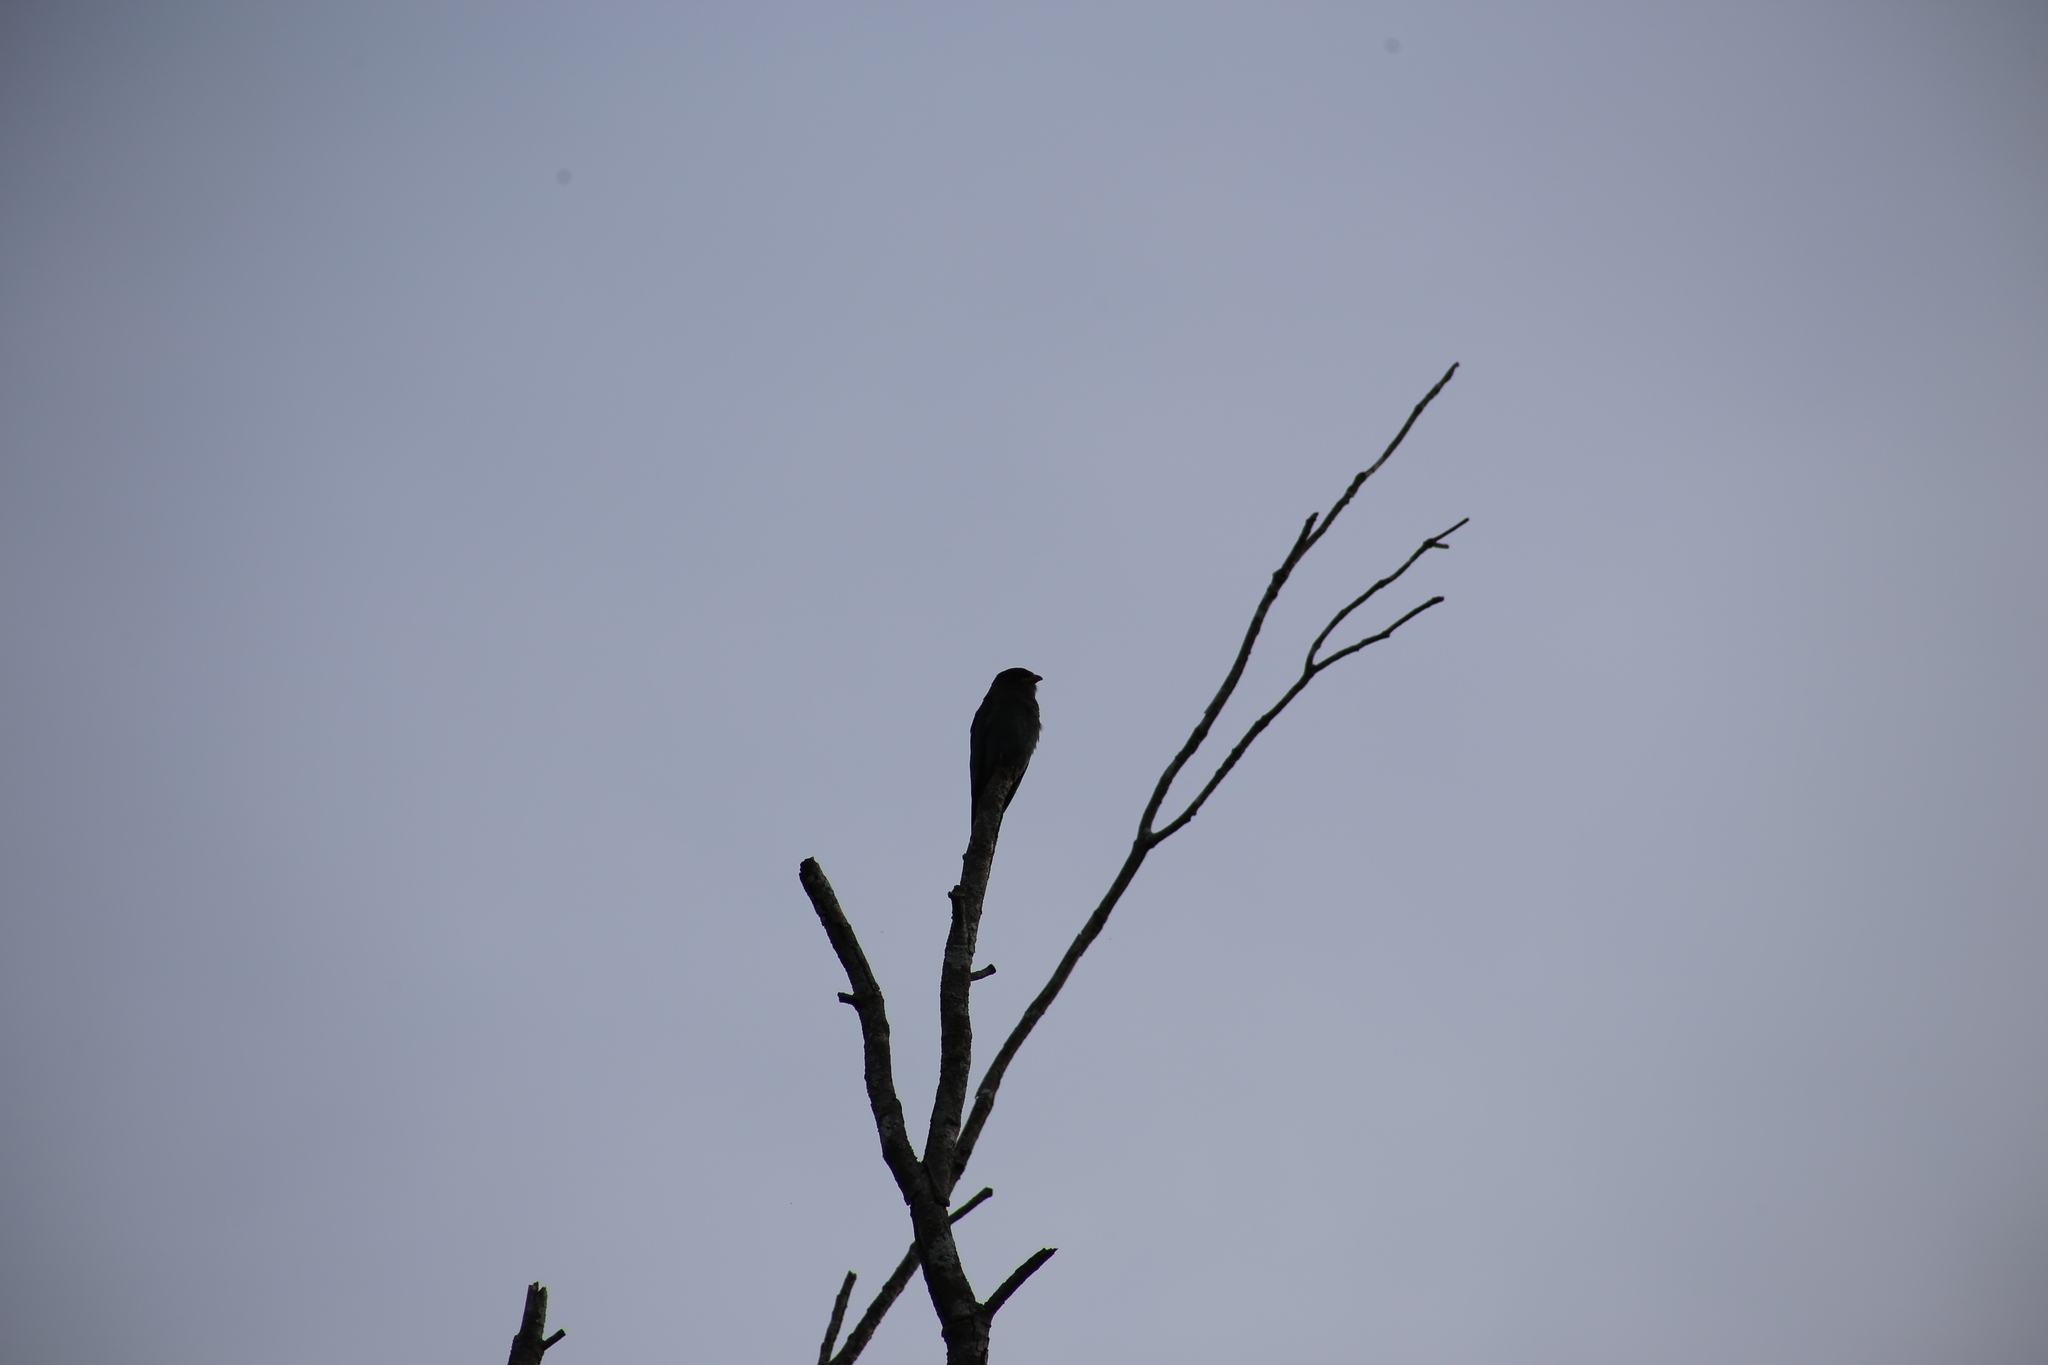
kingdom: Animalia
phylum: Chordata
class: Aves
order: Coraciiformes
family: Coraciidae
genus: Eurystomus
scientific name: Eurystomus orientalis
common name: Oriental dollarbird
